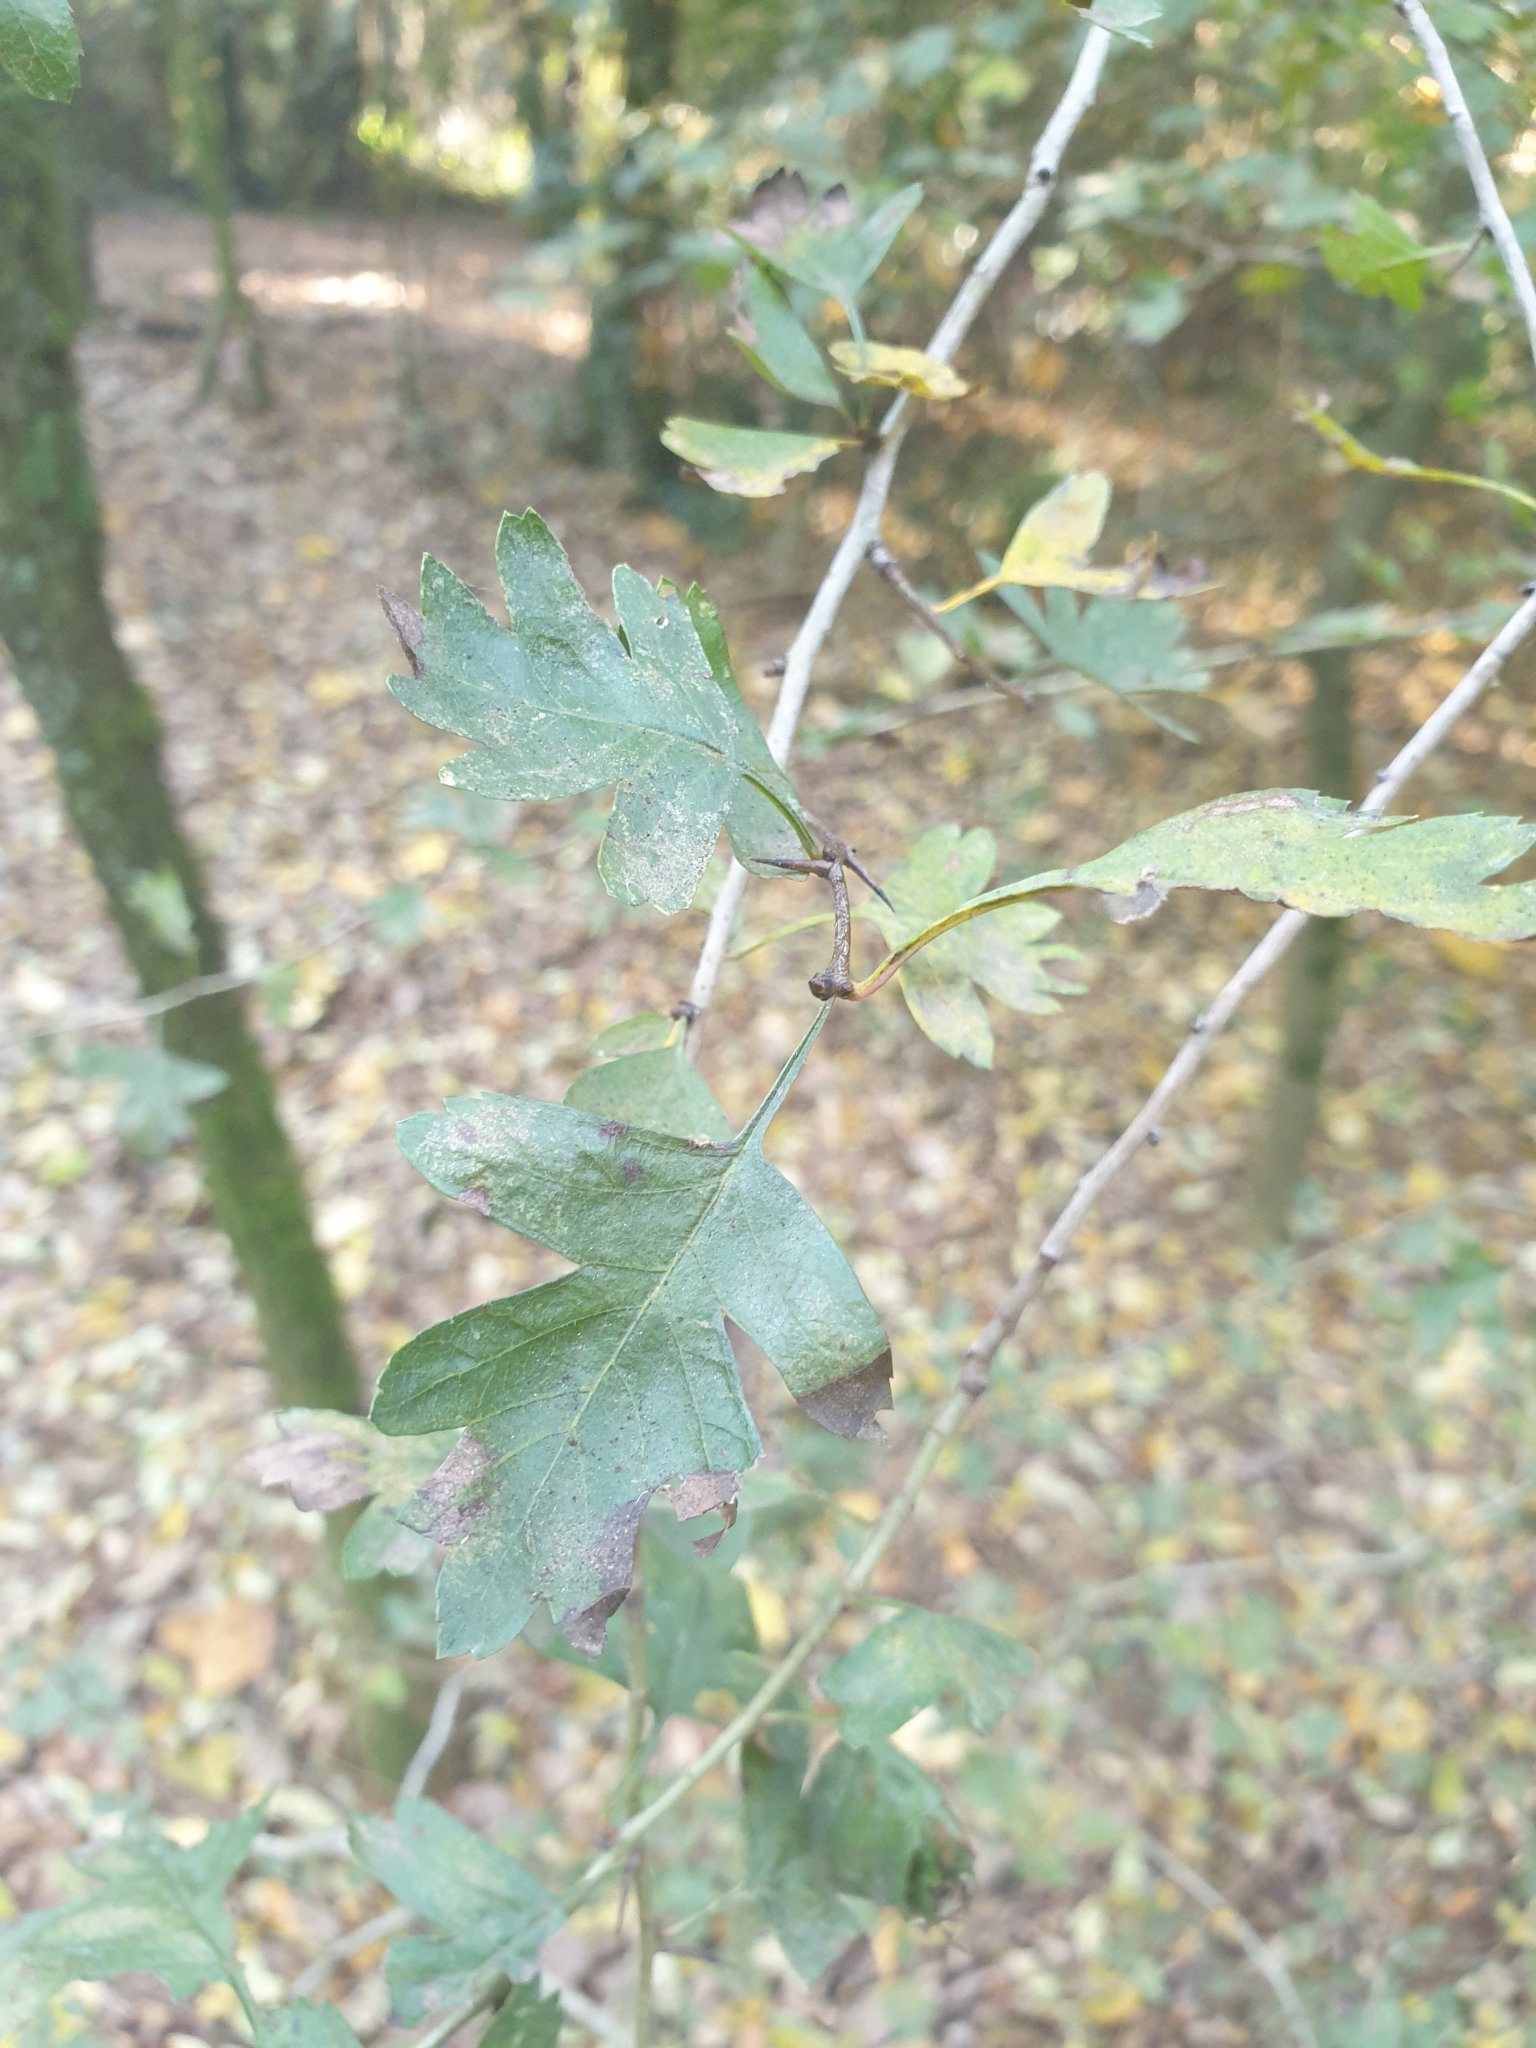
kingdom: Plantae
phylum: Tracheophyta
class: Magnoliopsida
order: Rosales
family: Rosaceae
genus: Crataegus
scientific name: Crataegus monogyna
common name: Hawthorn
